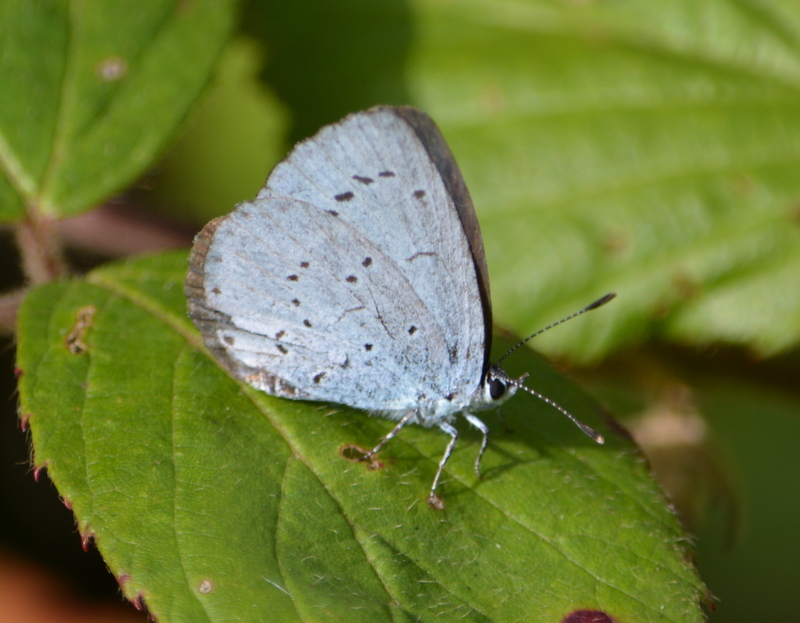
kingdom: Animalia
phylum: Arthropoda
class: Insecta
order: Lepidoptera
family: Lycaenidae
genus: Celastrina
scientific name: Celastrina argiolus
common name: Holly blue
